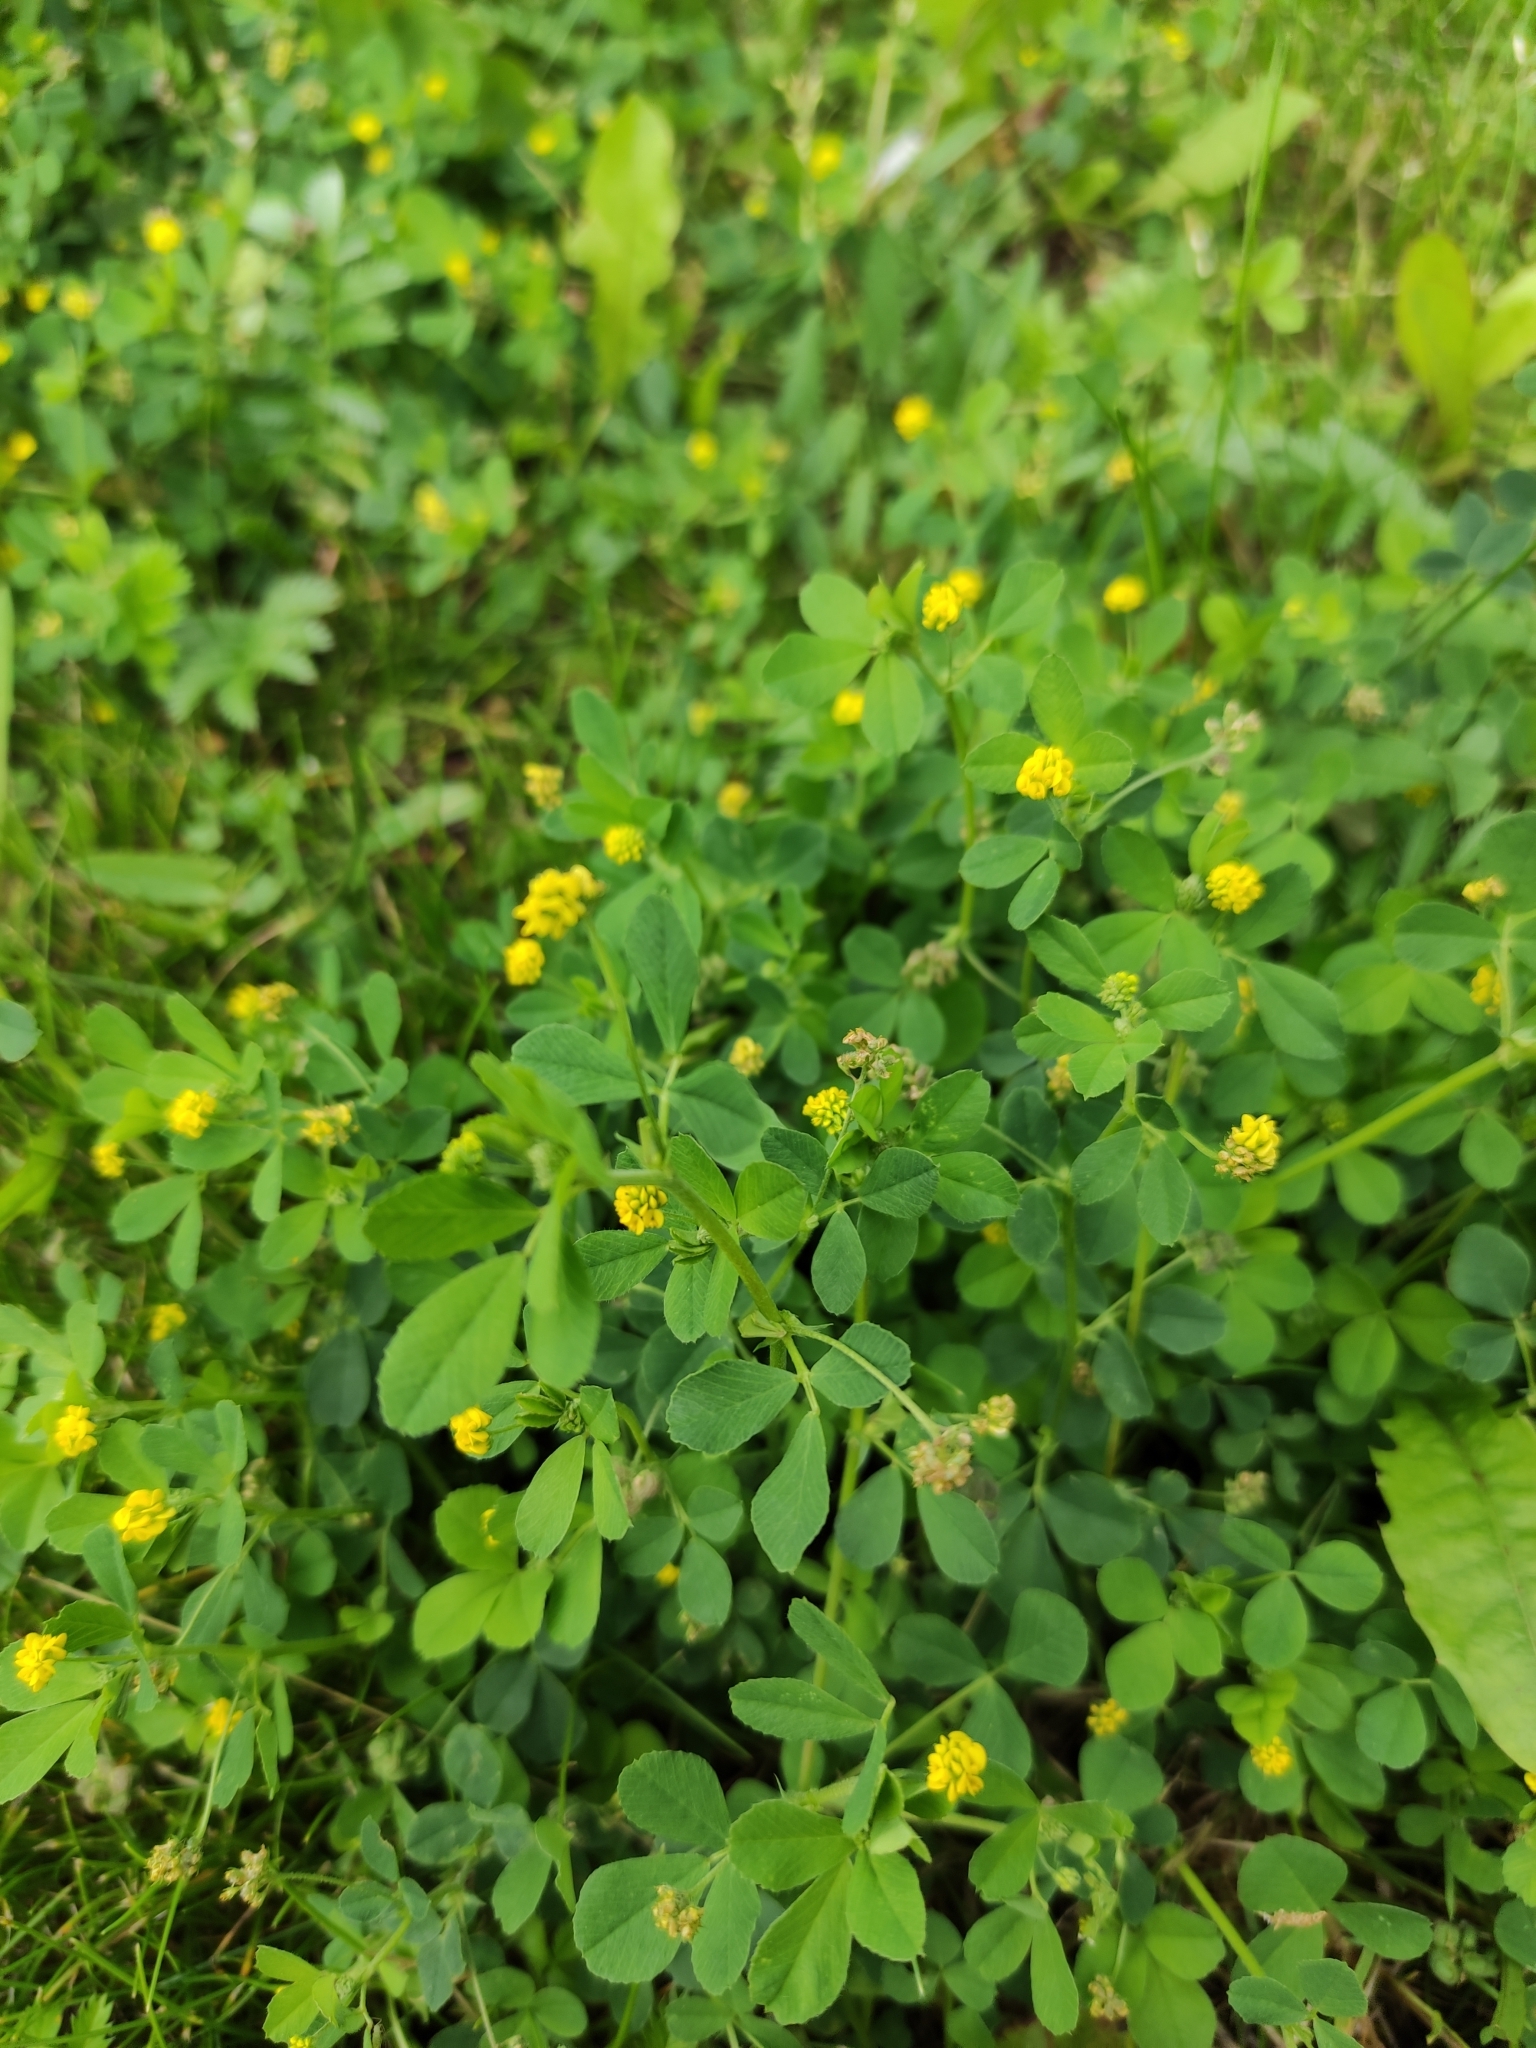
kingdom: Plantae
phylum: Tracheophyta
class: Magnoliopsida
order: Fabales
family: Fabaceae
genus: Medicago
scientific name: Medicago lupulina
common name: Black medick
